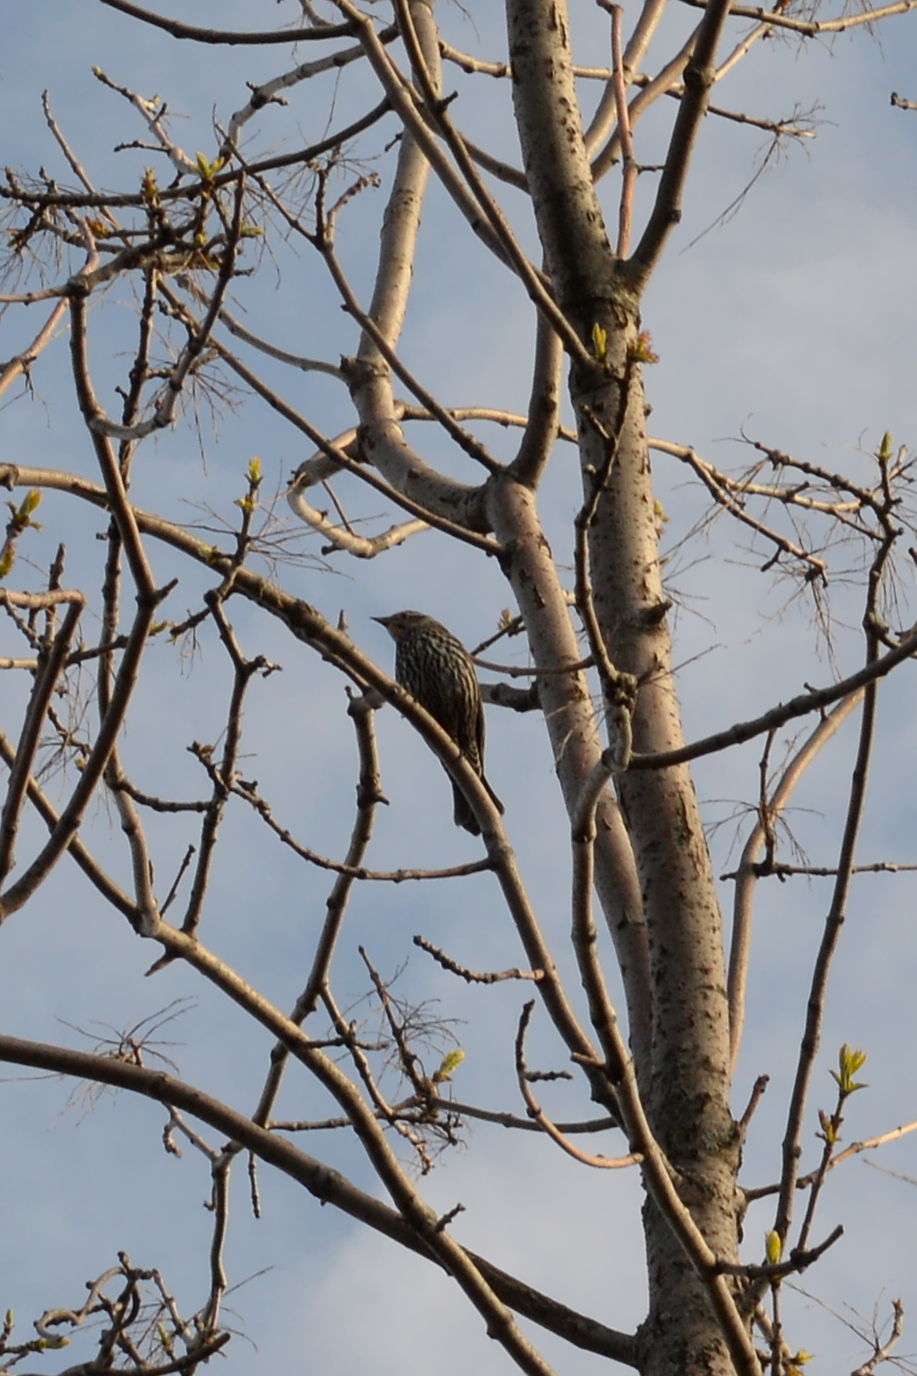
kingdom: Animalia
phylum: Chordata
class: Aves
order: Passeriformes
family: Icteridae
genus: Agelaius
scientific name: Agelaius phoeniceus
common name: Red-winged blackbird
